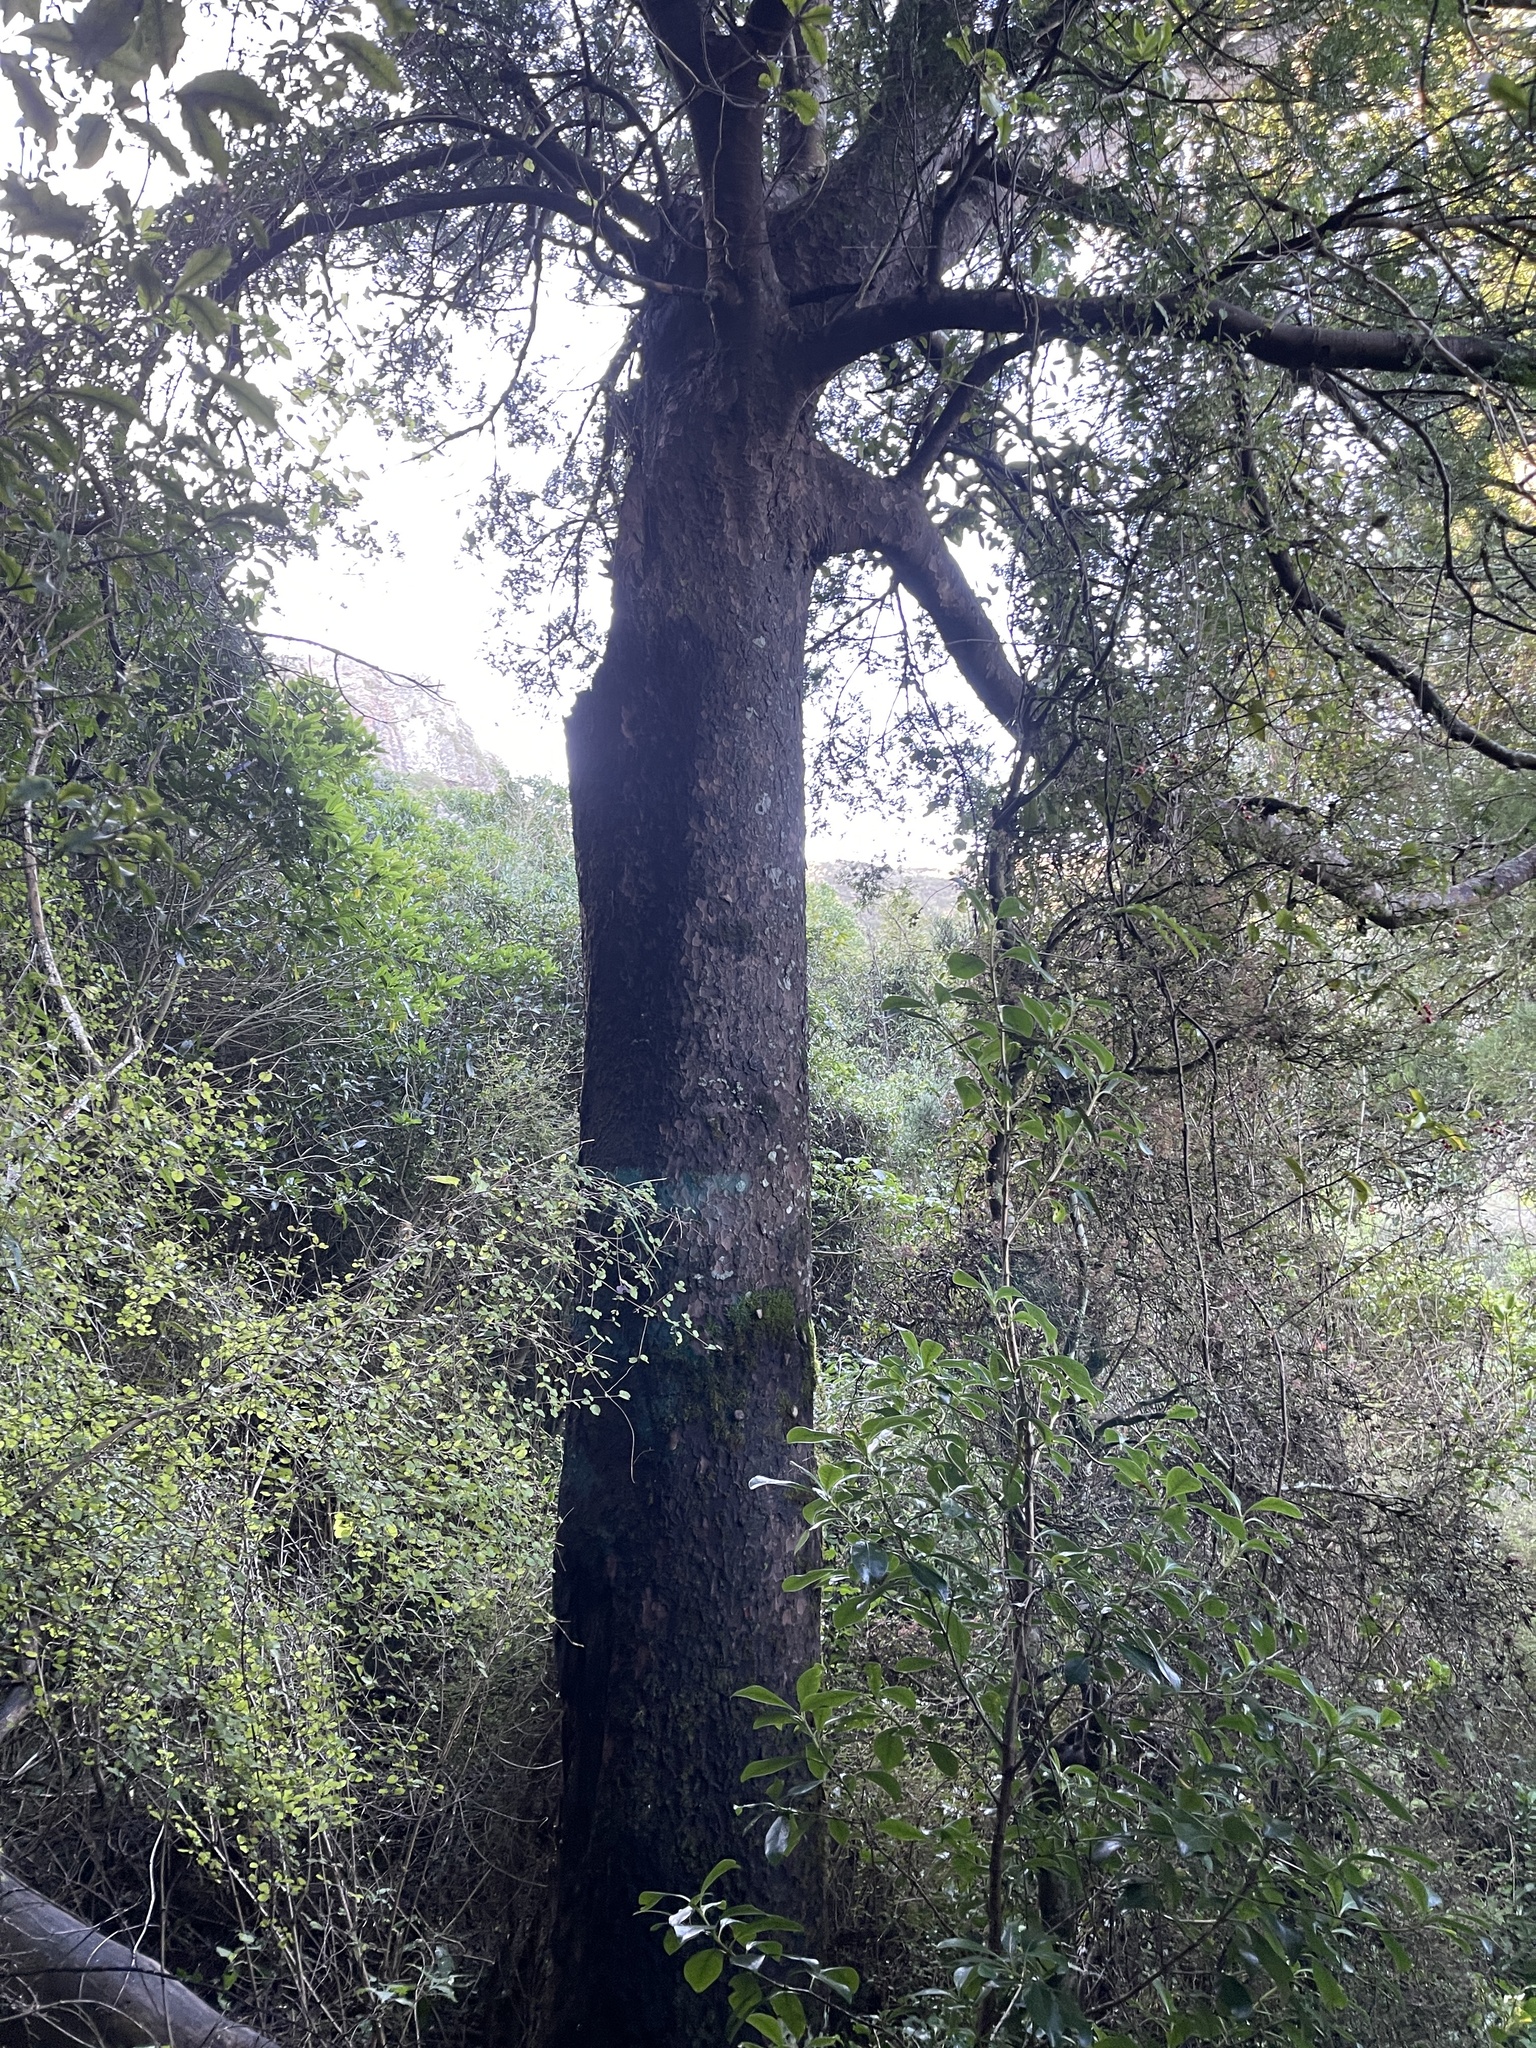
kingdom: Plantae
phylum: Tracheophyta
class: Pinopsida
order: Pinales
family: Podocarpaceae
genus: Prumnopitys
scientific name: Prumnopitys taxifolia
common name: Matai
